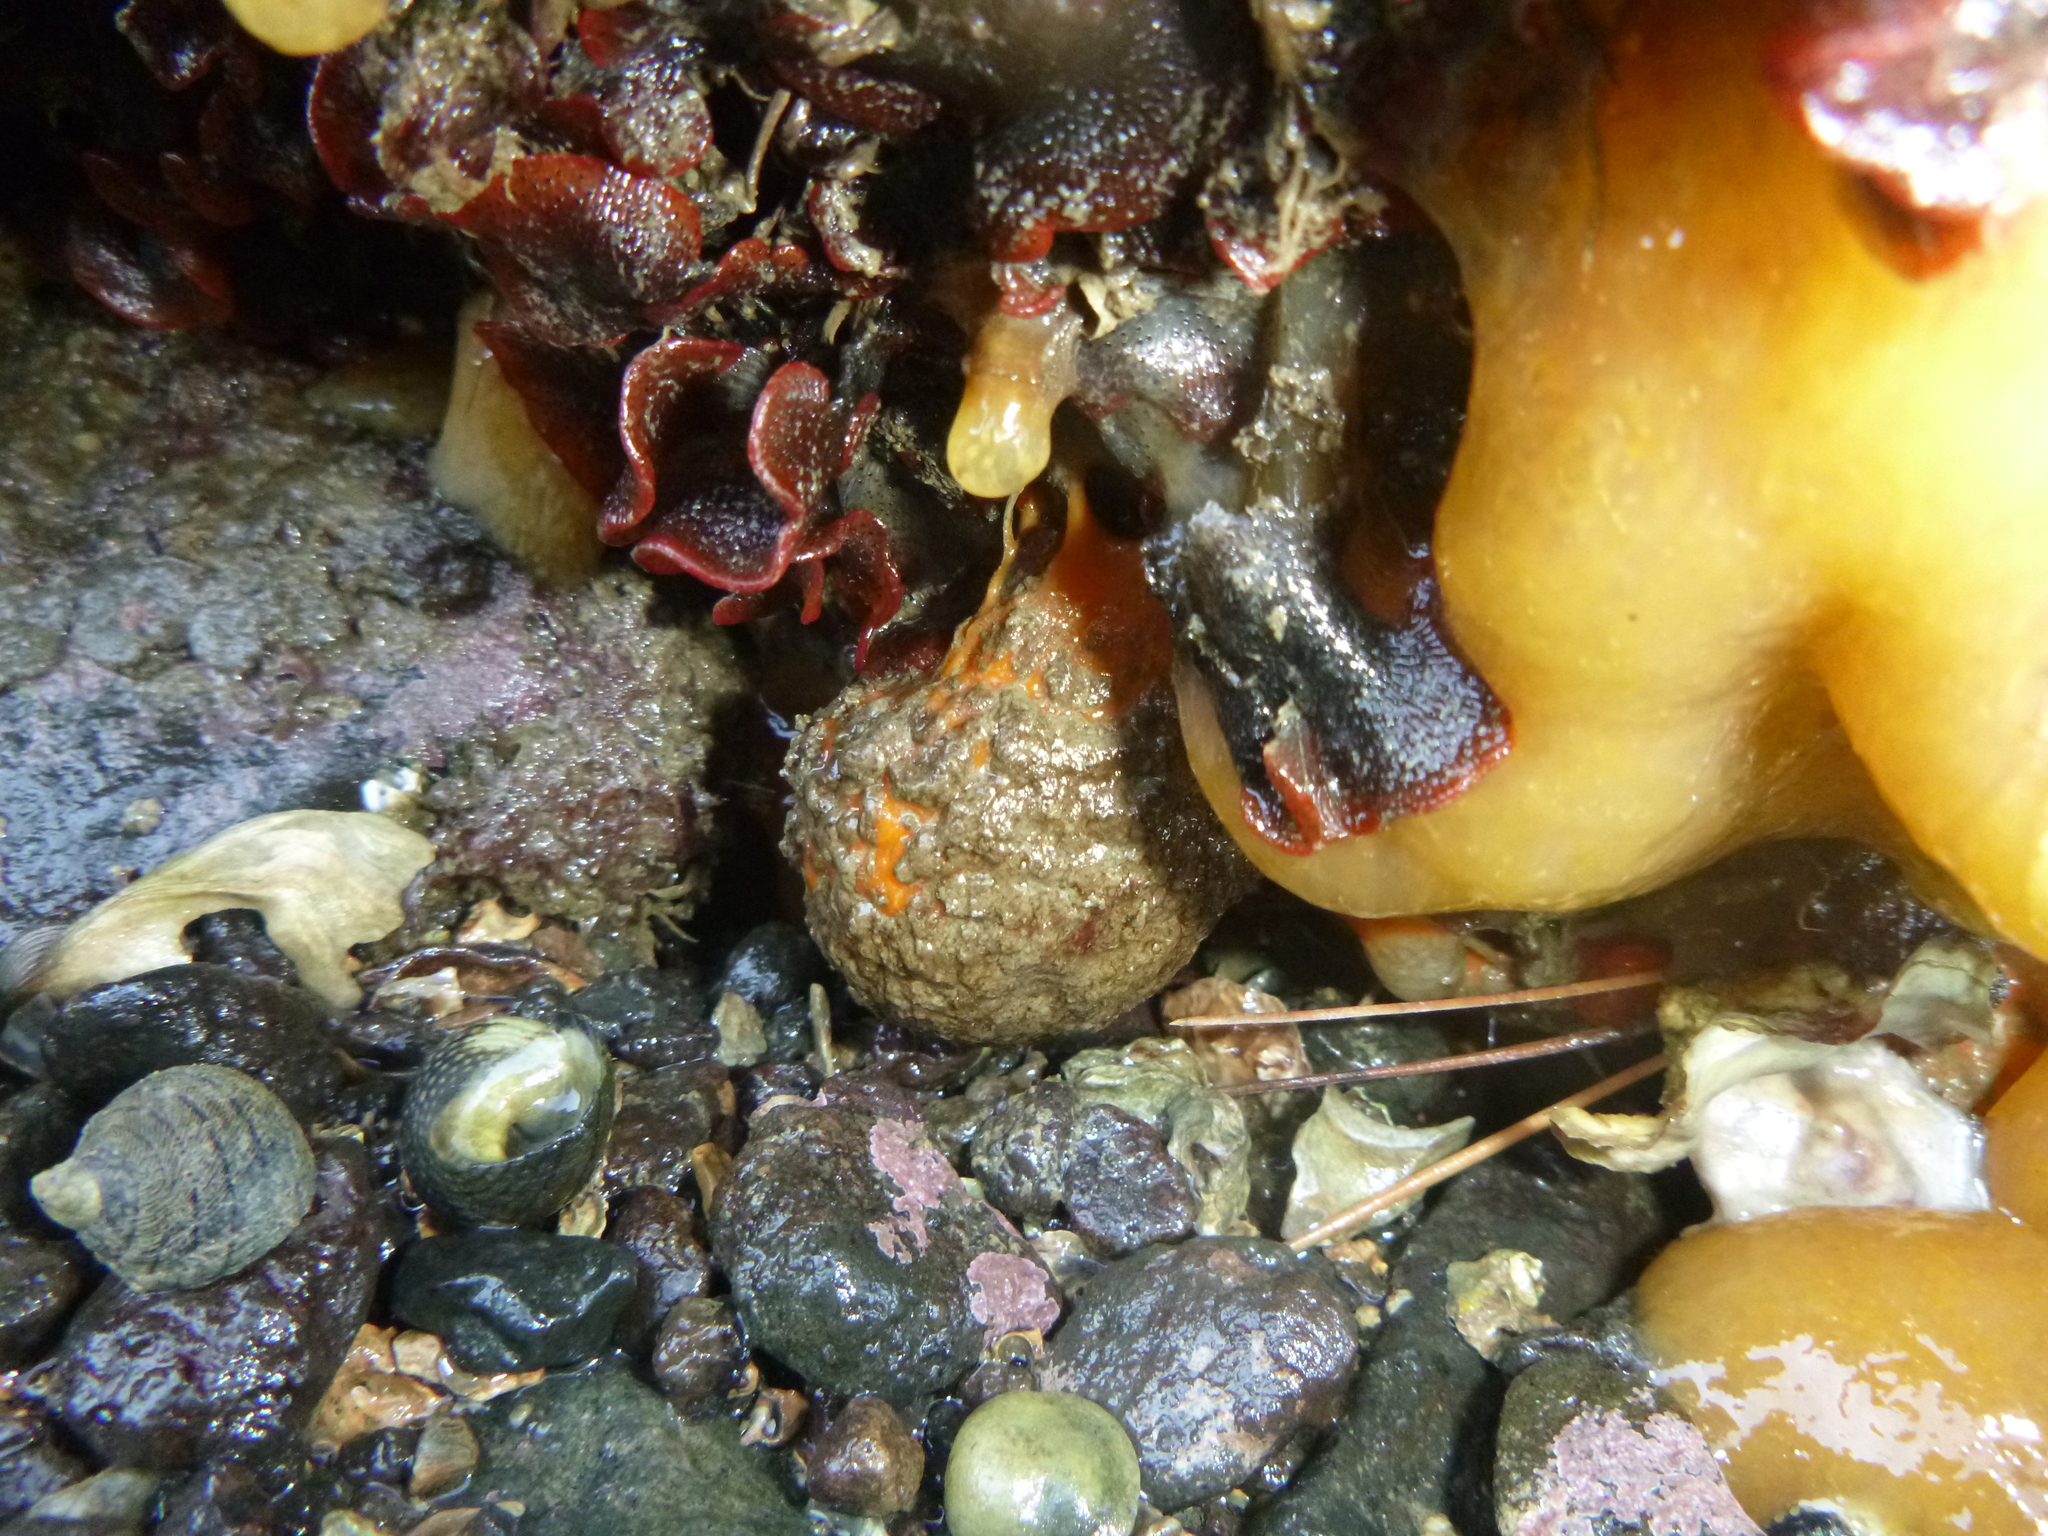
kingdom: Animalia
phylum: Porifera
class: Demospongiae
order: Tethyida
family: Tethyidae
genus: Tethya
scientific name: Tethya burtoni
